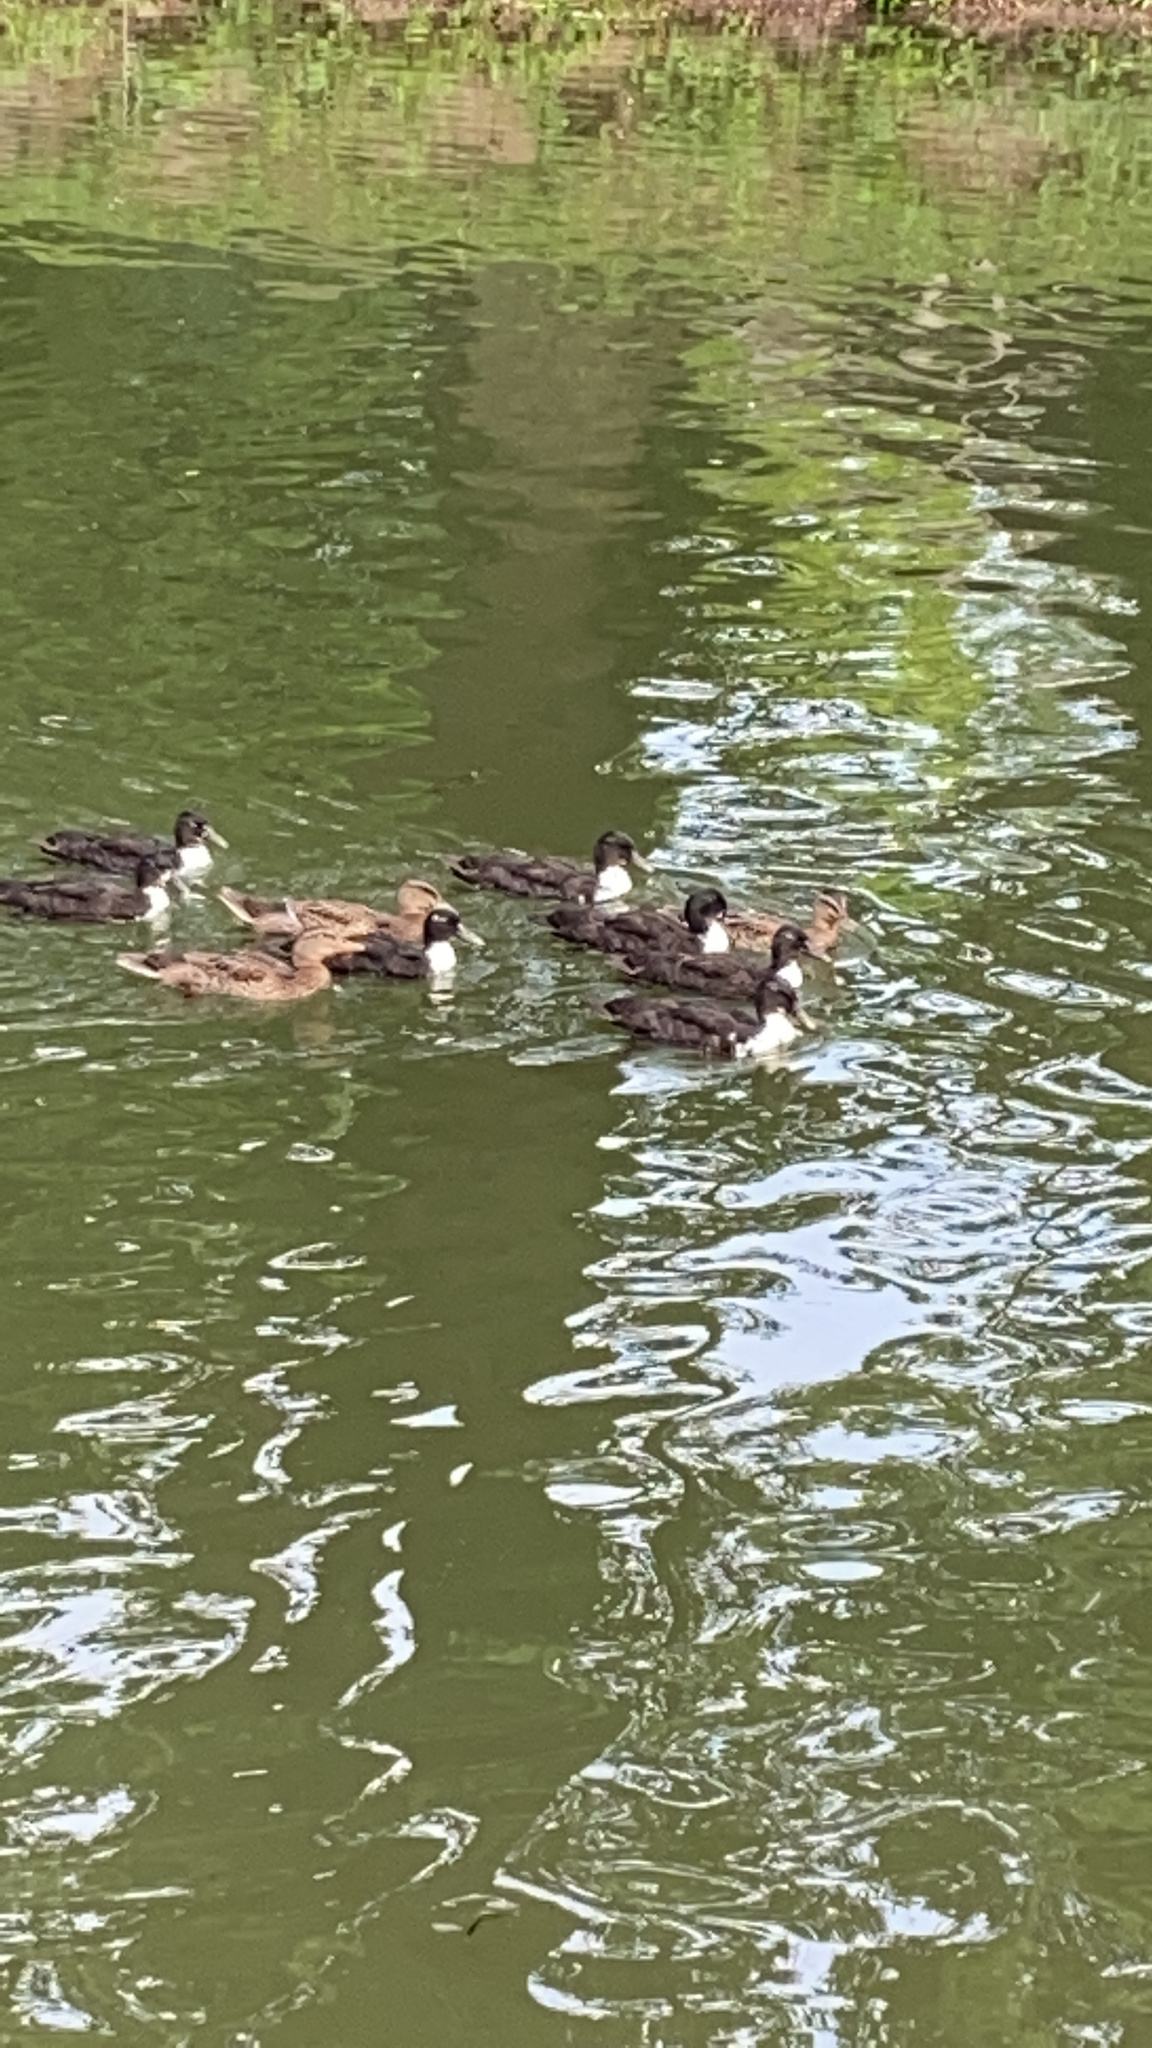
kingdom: Animalia
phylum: Chordata
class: Aves
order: Anseriformes
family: Anatidae
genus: Anas
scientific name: Anas platyrhynchos
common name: Mallard
